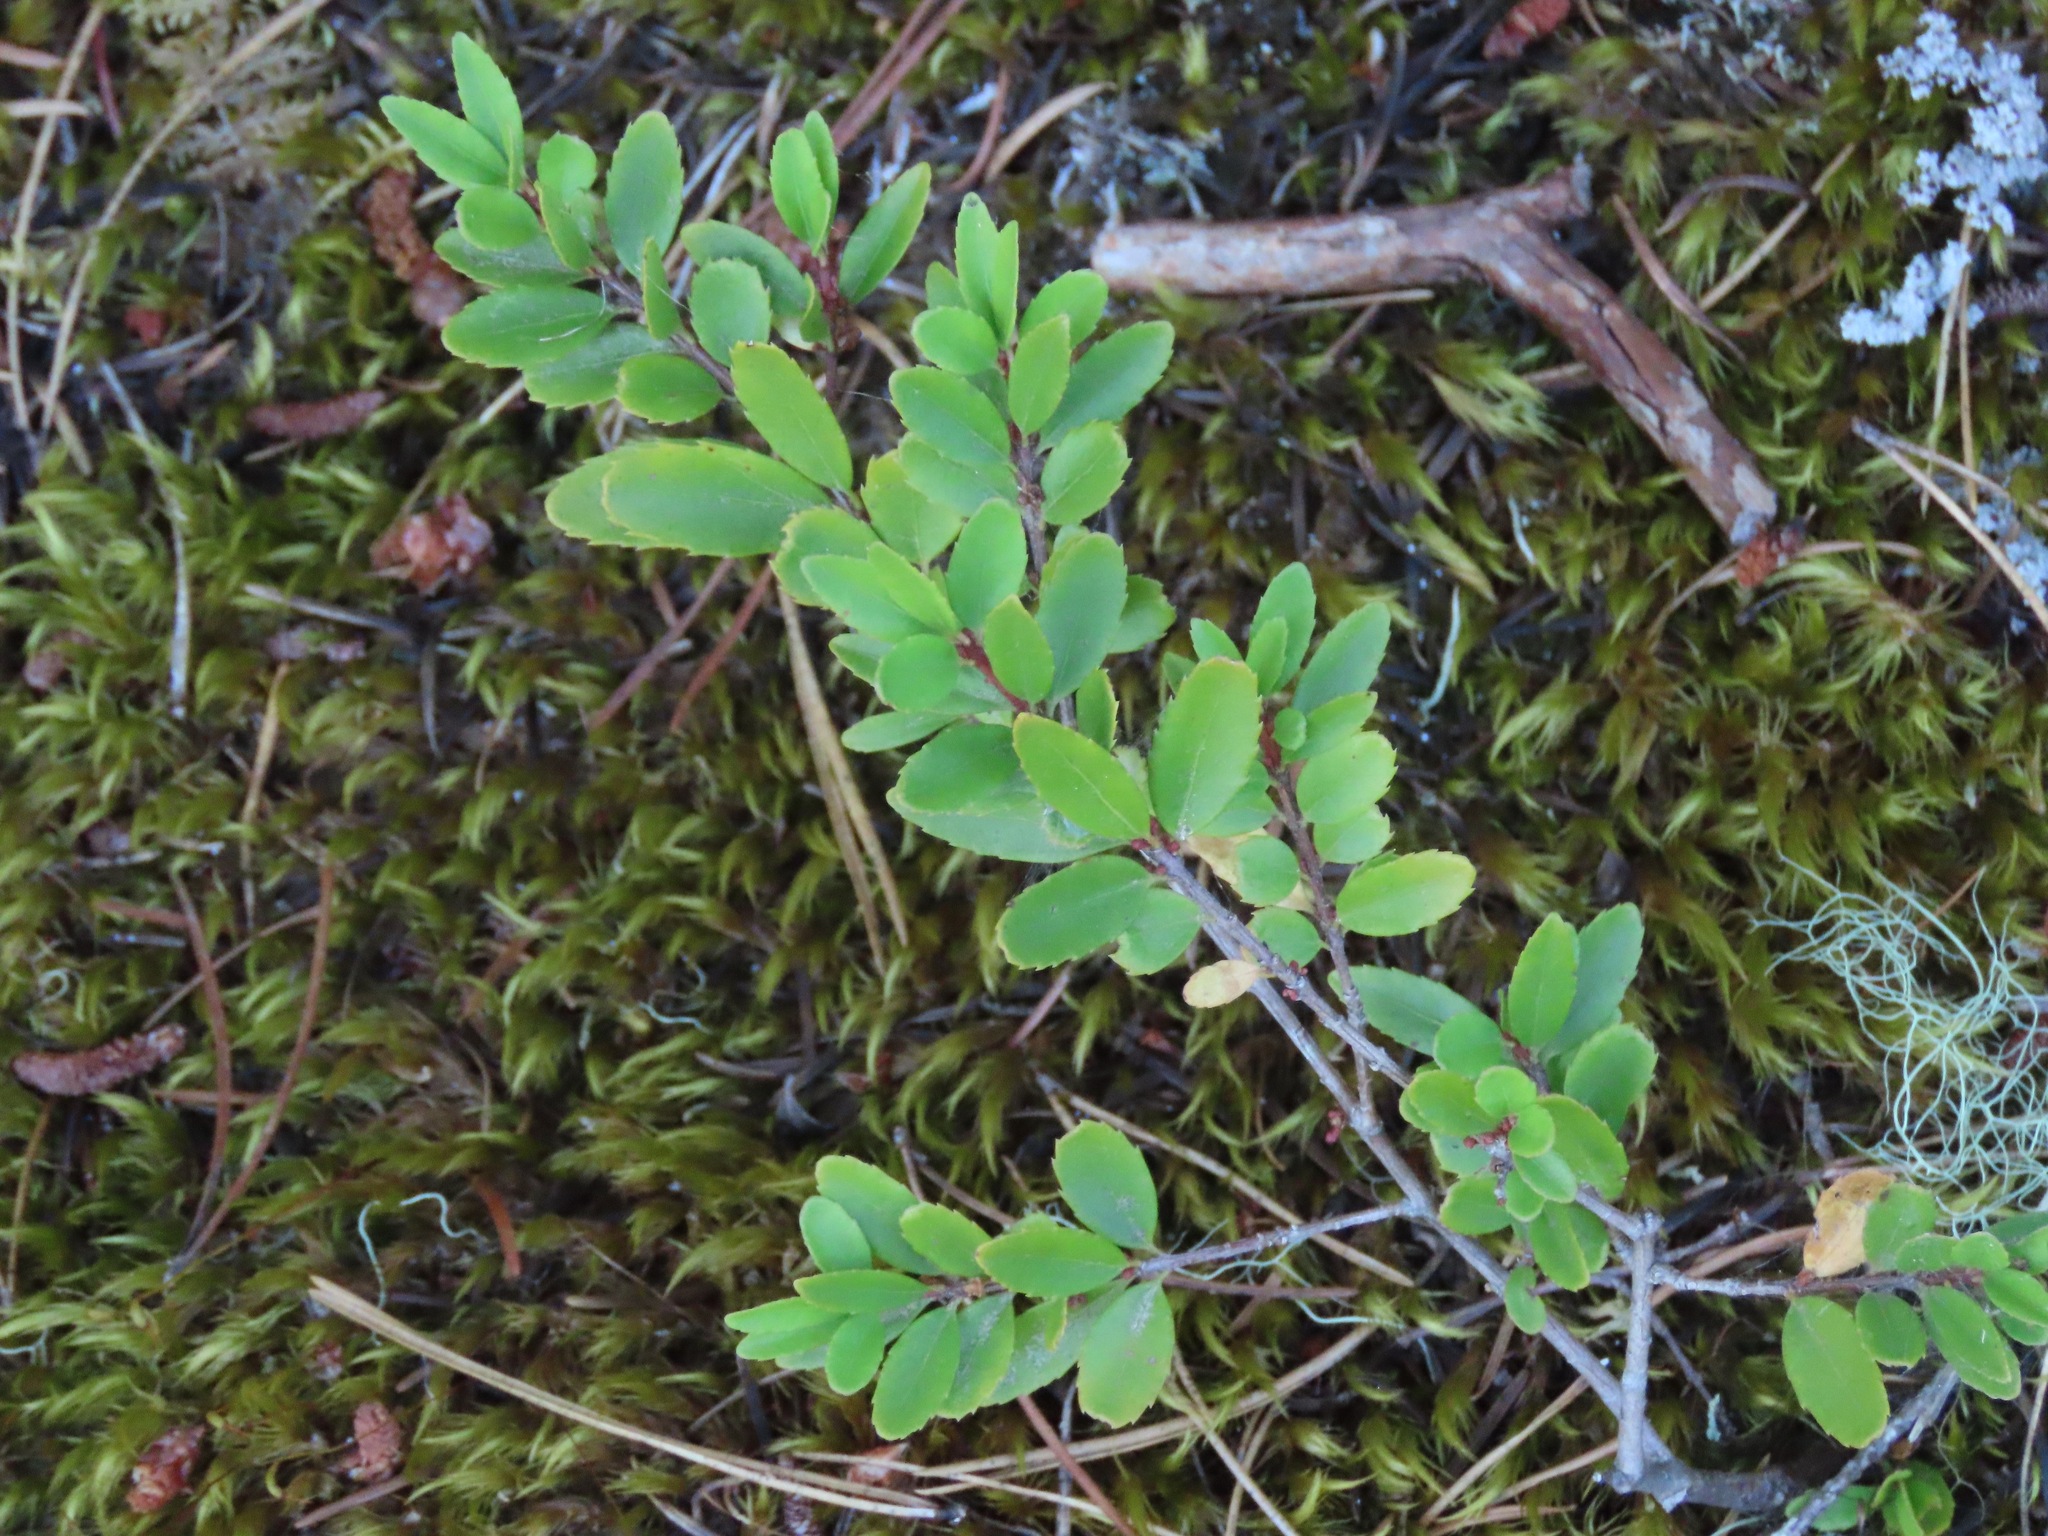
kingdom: Plantae
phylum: Tracheophyta
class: Magnoliopsida
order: Celastrales
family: Celastraceae
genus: Paxistima
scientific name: Paxistima myrsinites
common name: Mountain-lover
